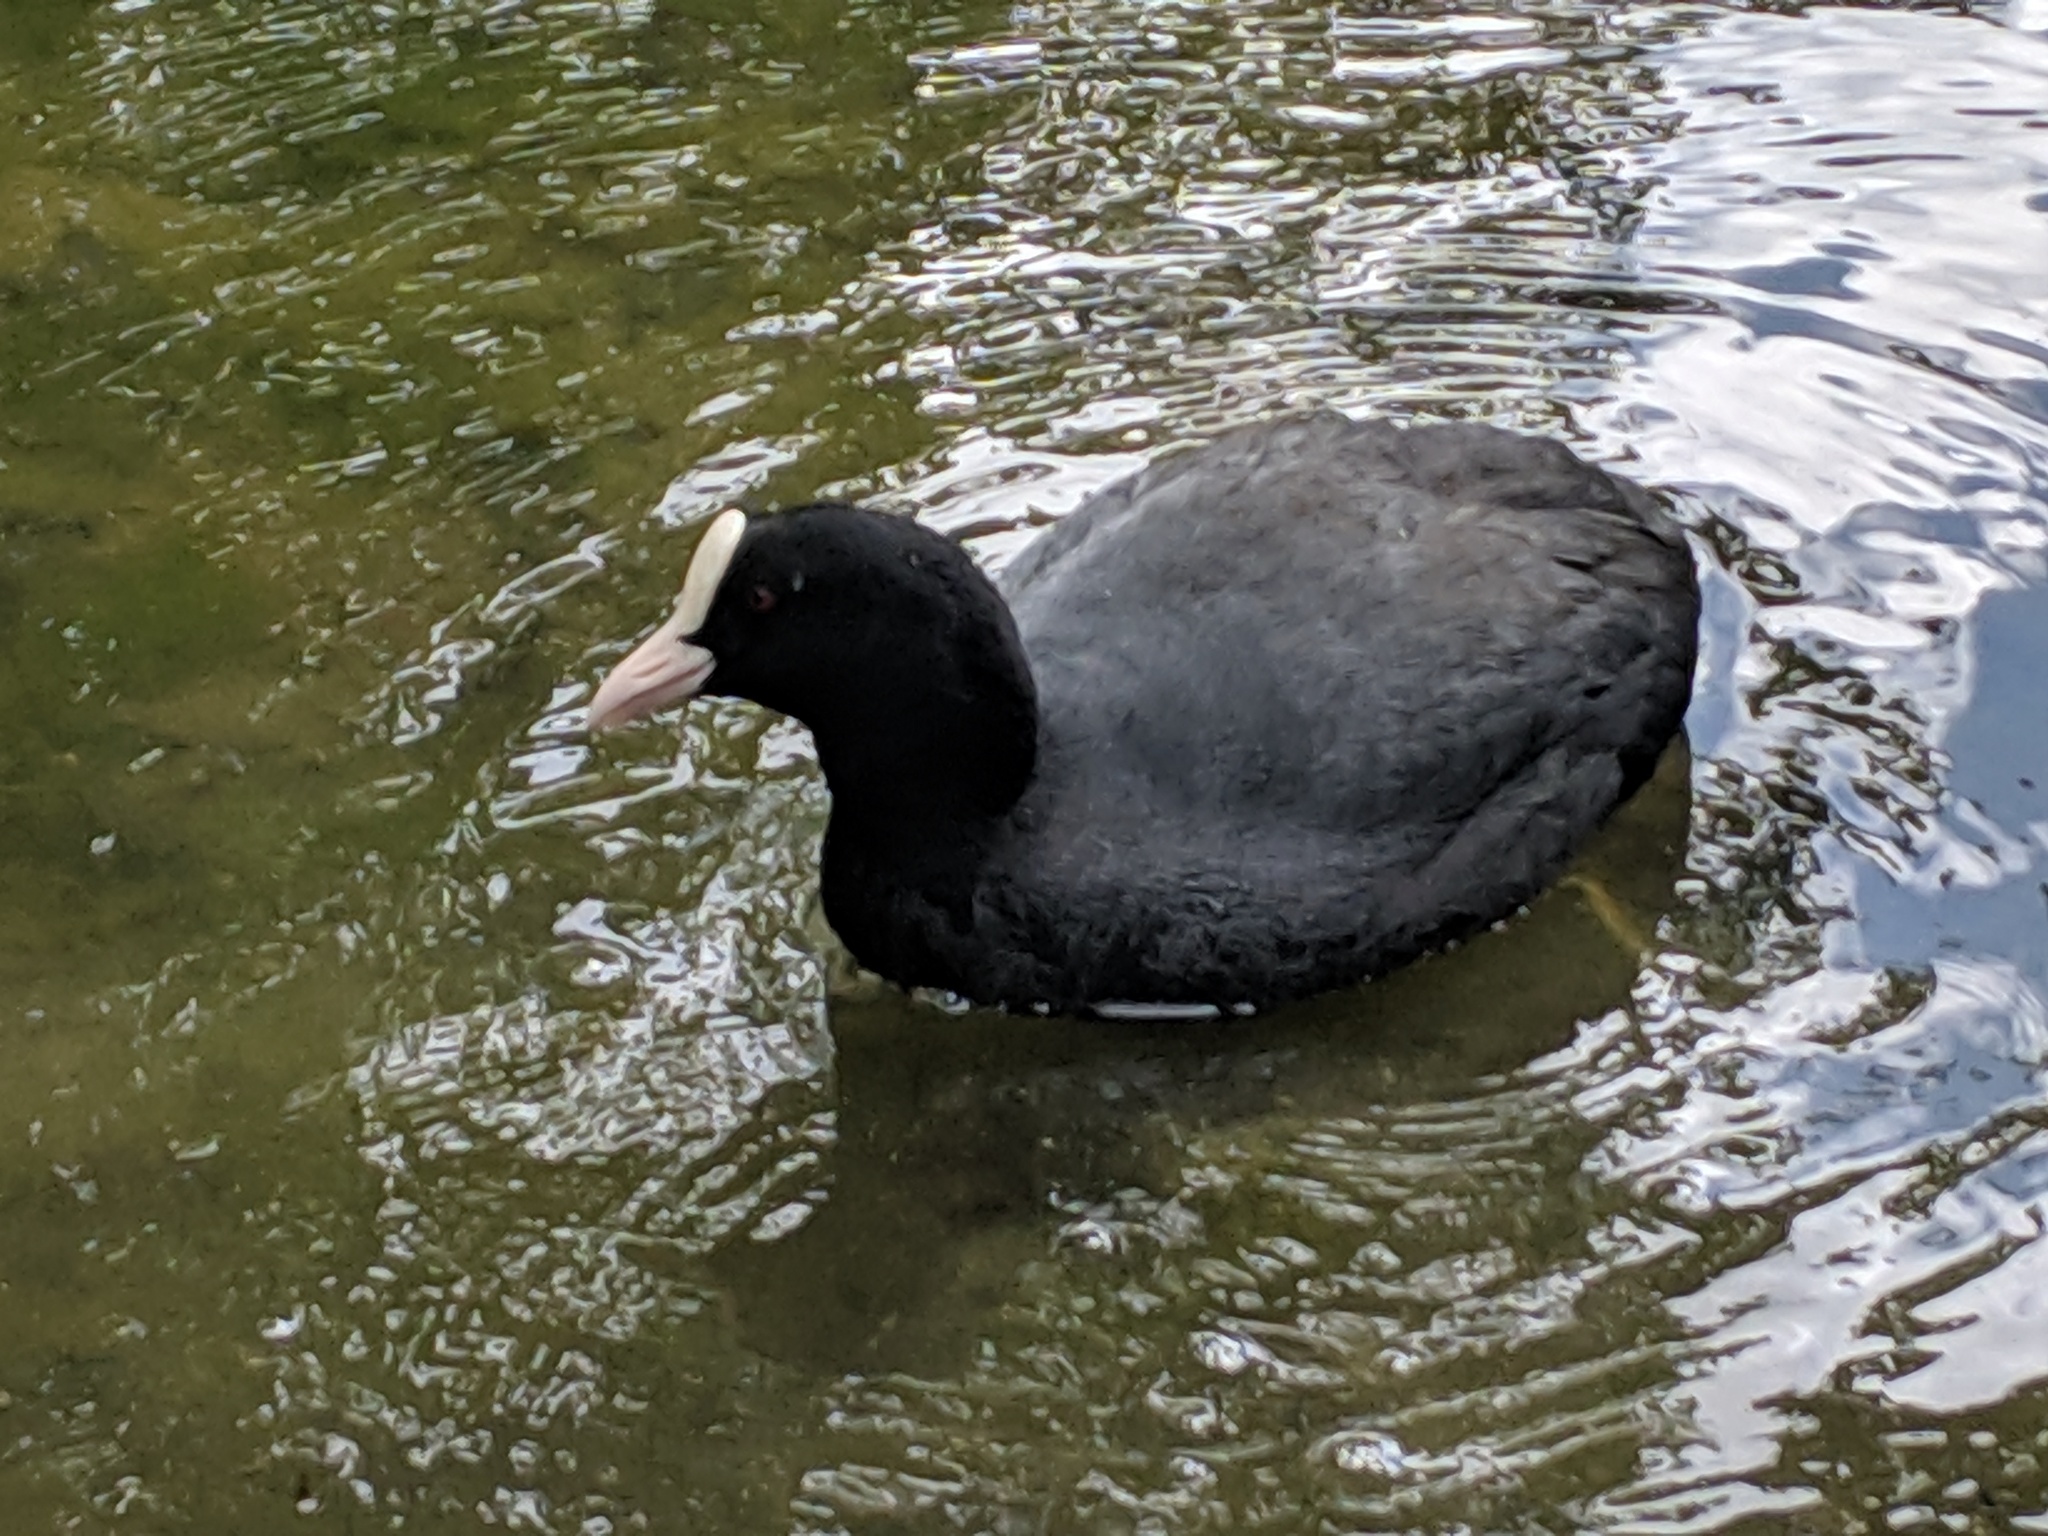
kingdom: Animalia
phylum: Chordata
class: Aves
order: Gruiformes
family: Rallidae
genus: Fulica
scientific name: Fulica atra
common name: Eurasian coot
